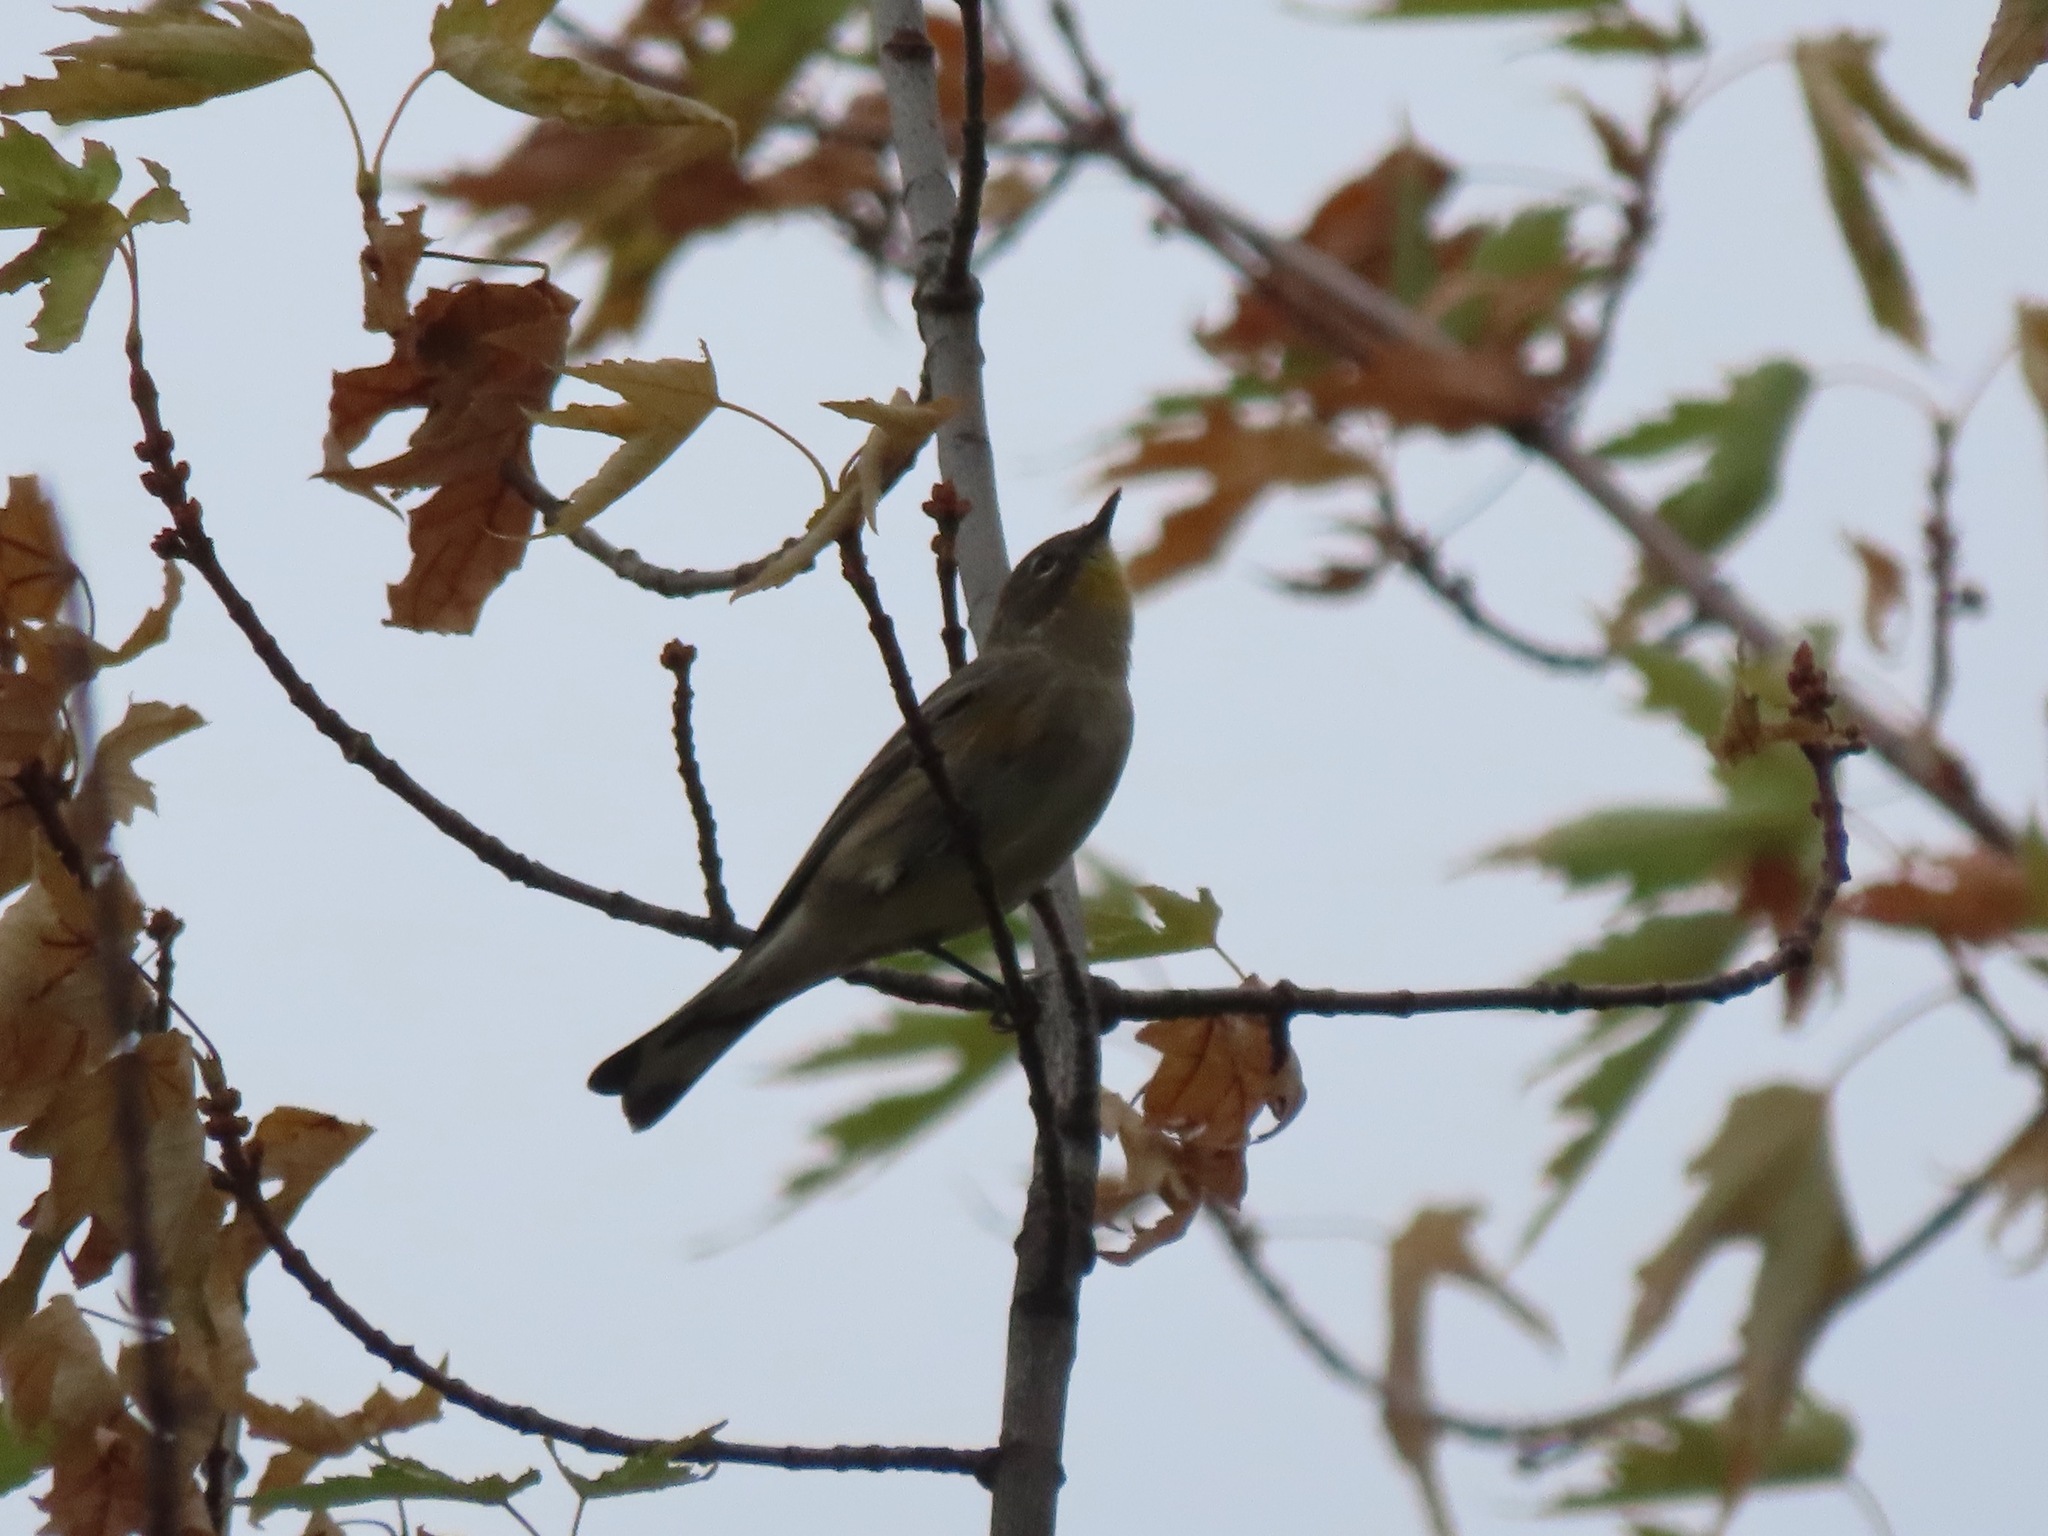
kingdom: Animalia
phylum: Chordata
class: Aves
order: Passeriformes
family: Parulidae
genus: Setophaga
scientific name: Setophaga coronata
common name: Myrtle warbler
